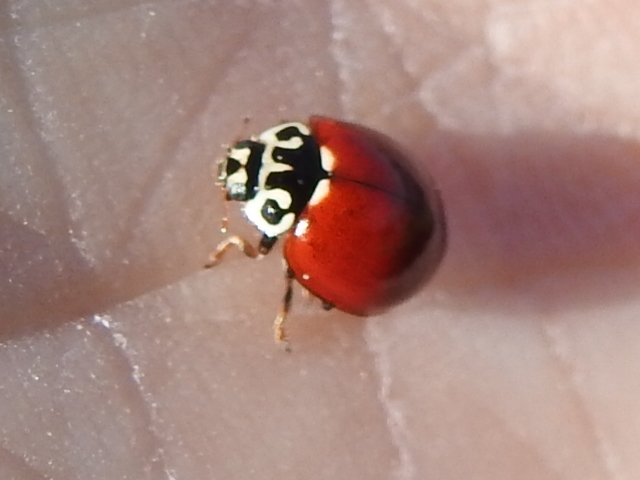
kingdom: Animalia
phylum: Arthropoda
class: Insecta
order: Coleoptera
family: Coccinellidae
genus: Cycloneda
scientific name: Cycloneda polita
